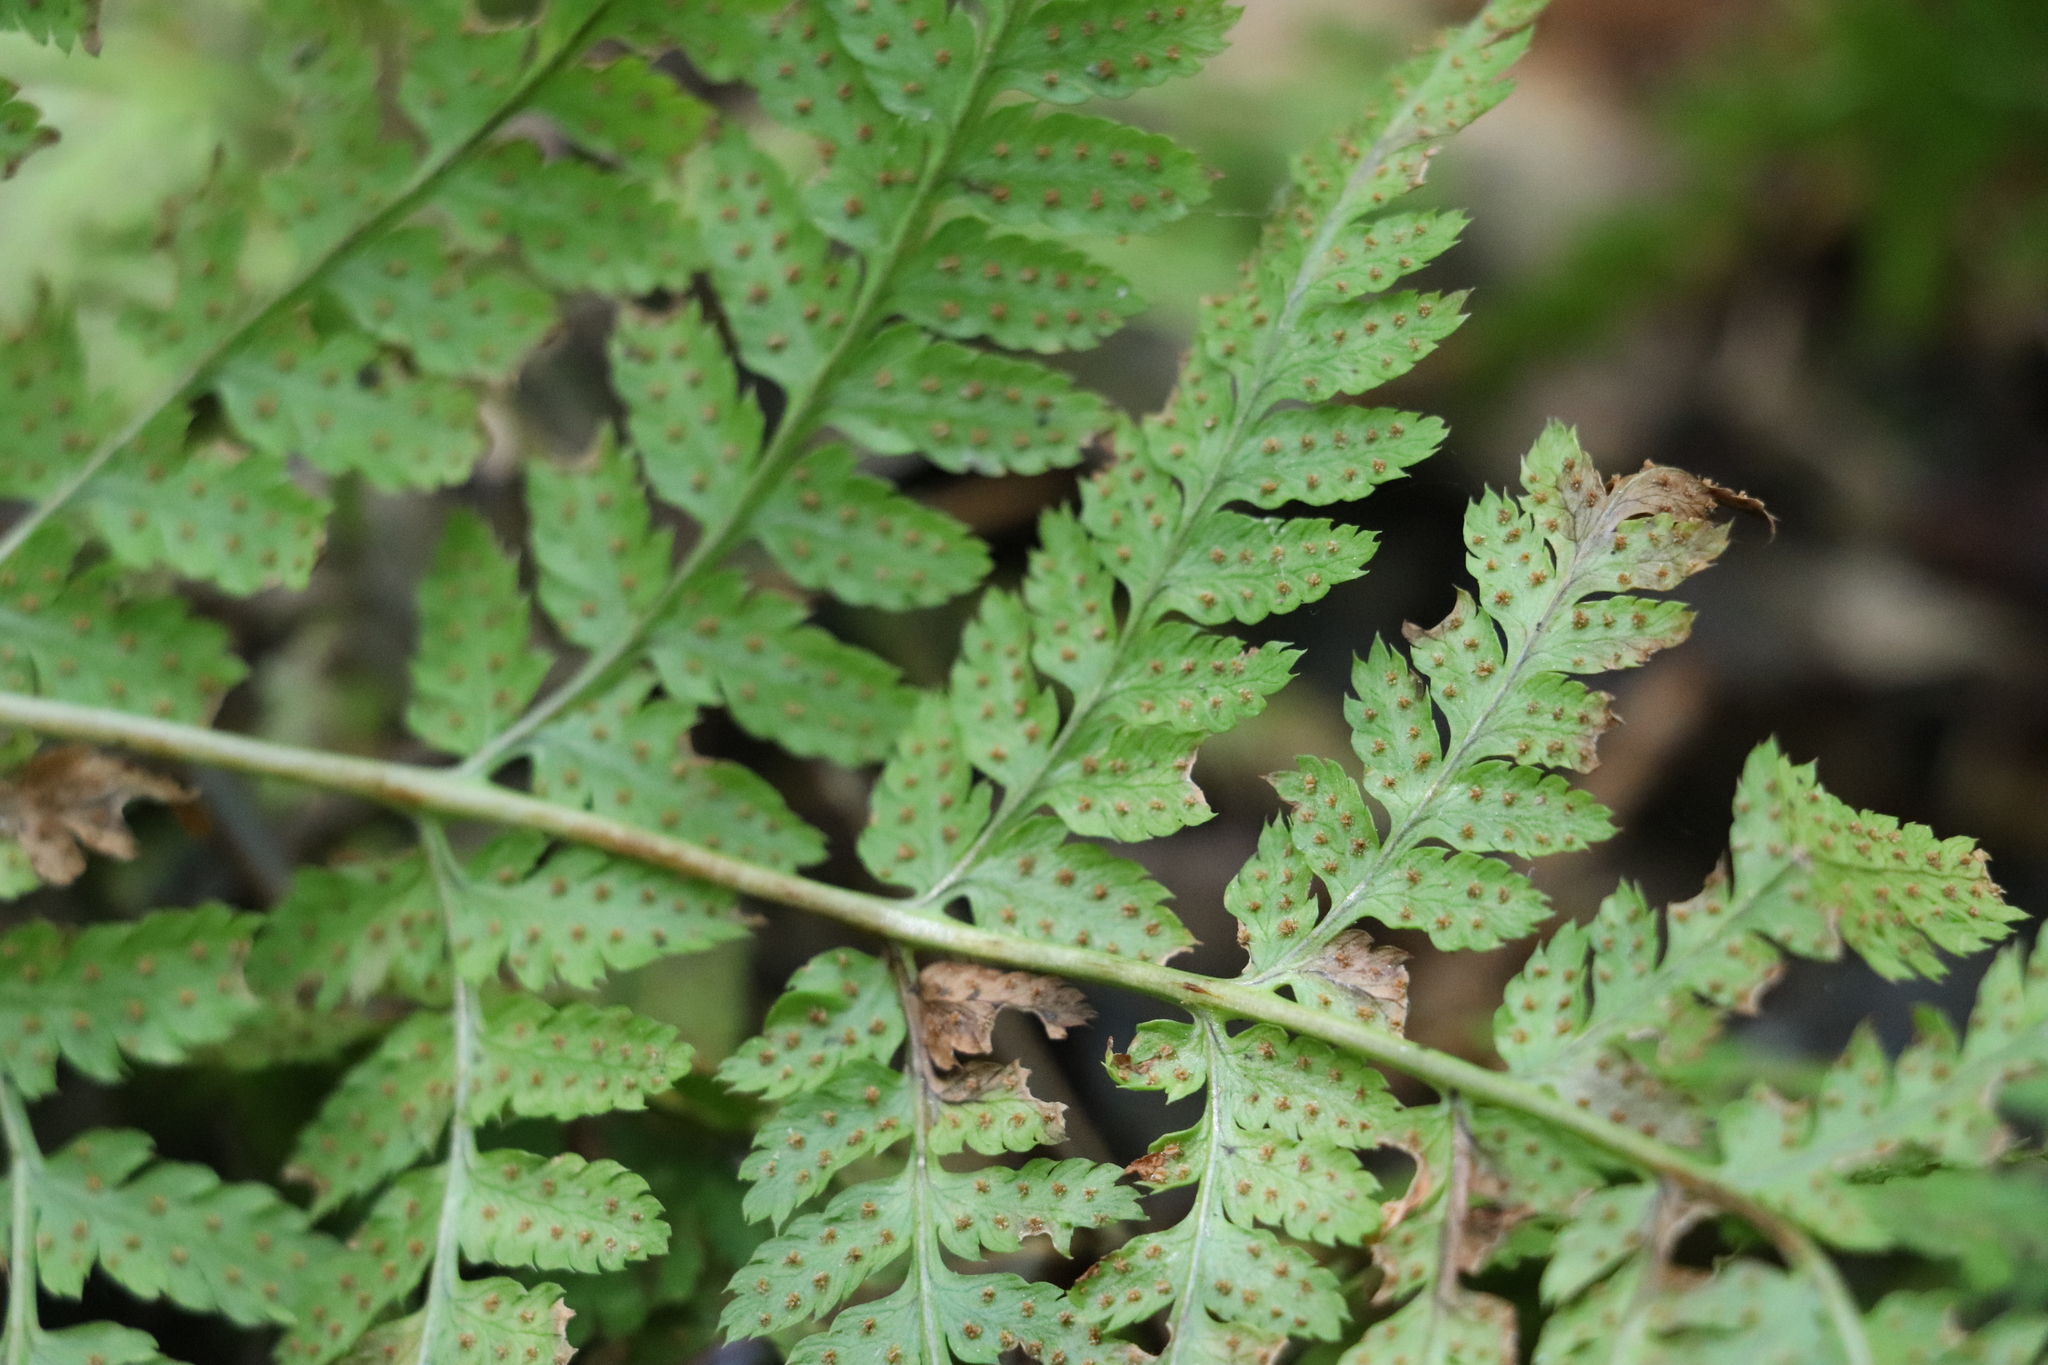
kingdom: Plantae
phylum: Tracheophyta
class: Polypodiopsida
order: Polypodiales
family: Dryopteridaceae
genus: Dryopteris
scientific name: Dryopteris carthusiana
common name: Narrow buckler-fern
